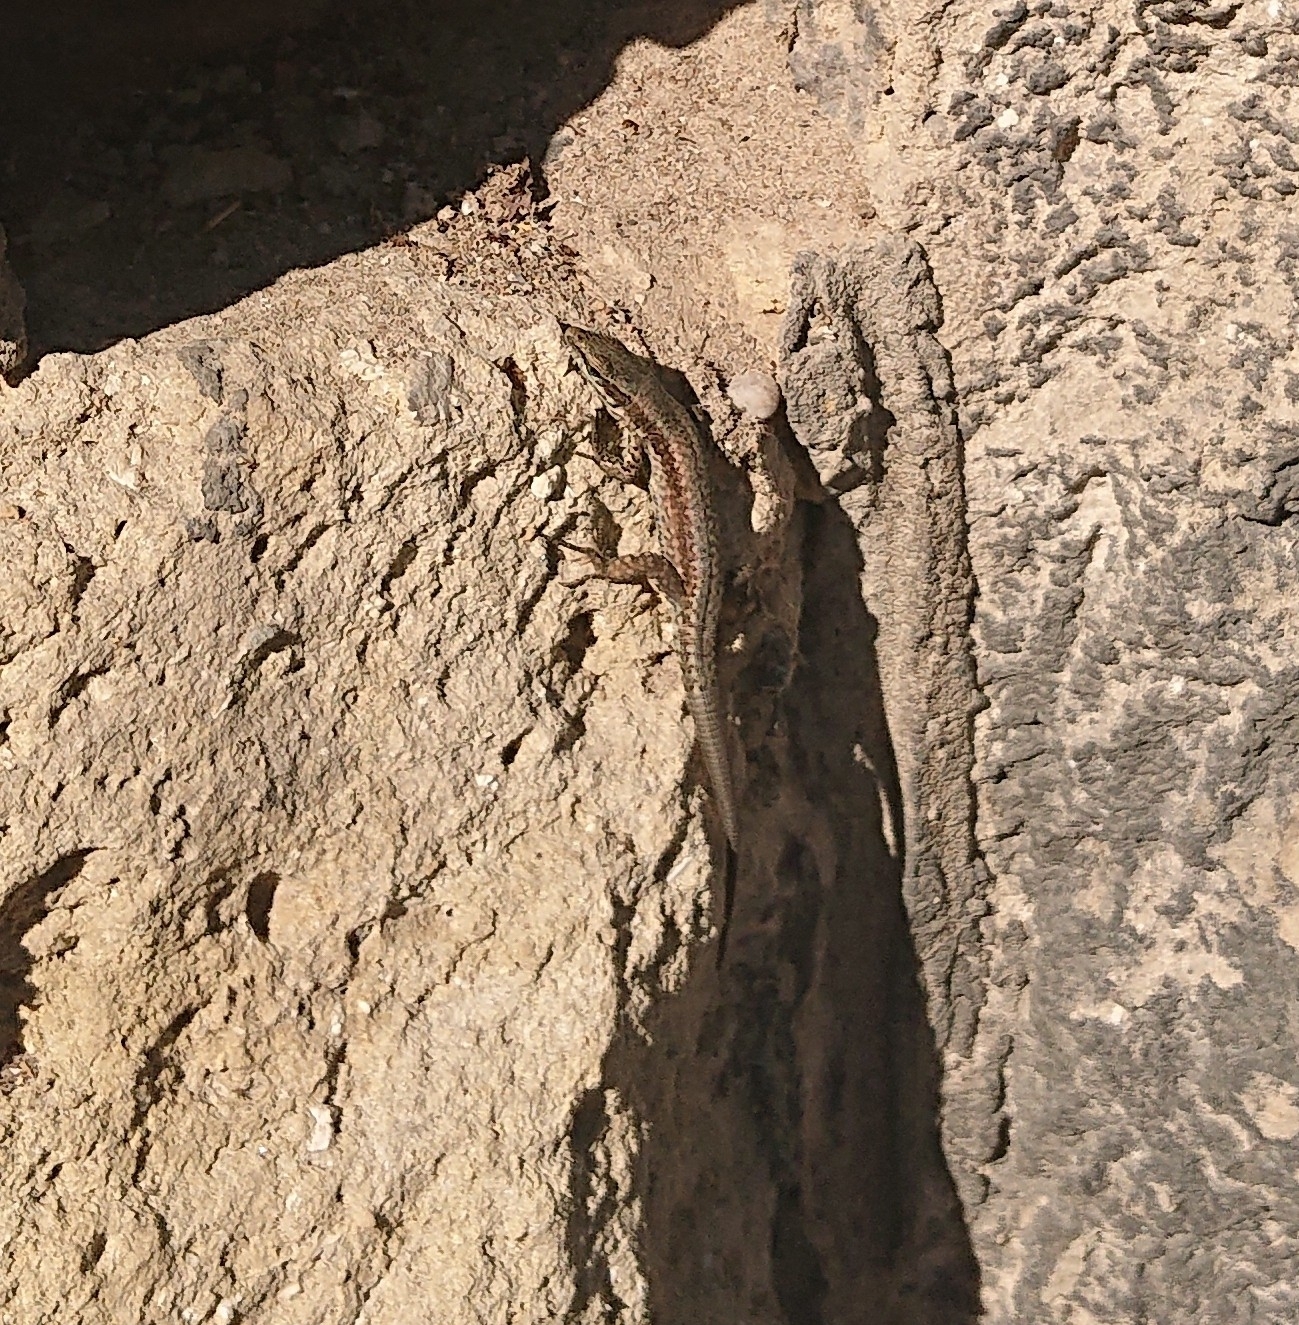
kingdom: Animalia
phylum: Chordata
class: Squamata
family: Lacertidae
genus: Podarcis
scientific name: Podarcis muralis
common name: Common wall lizard
